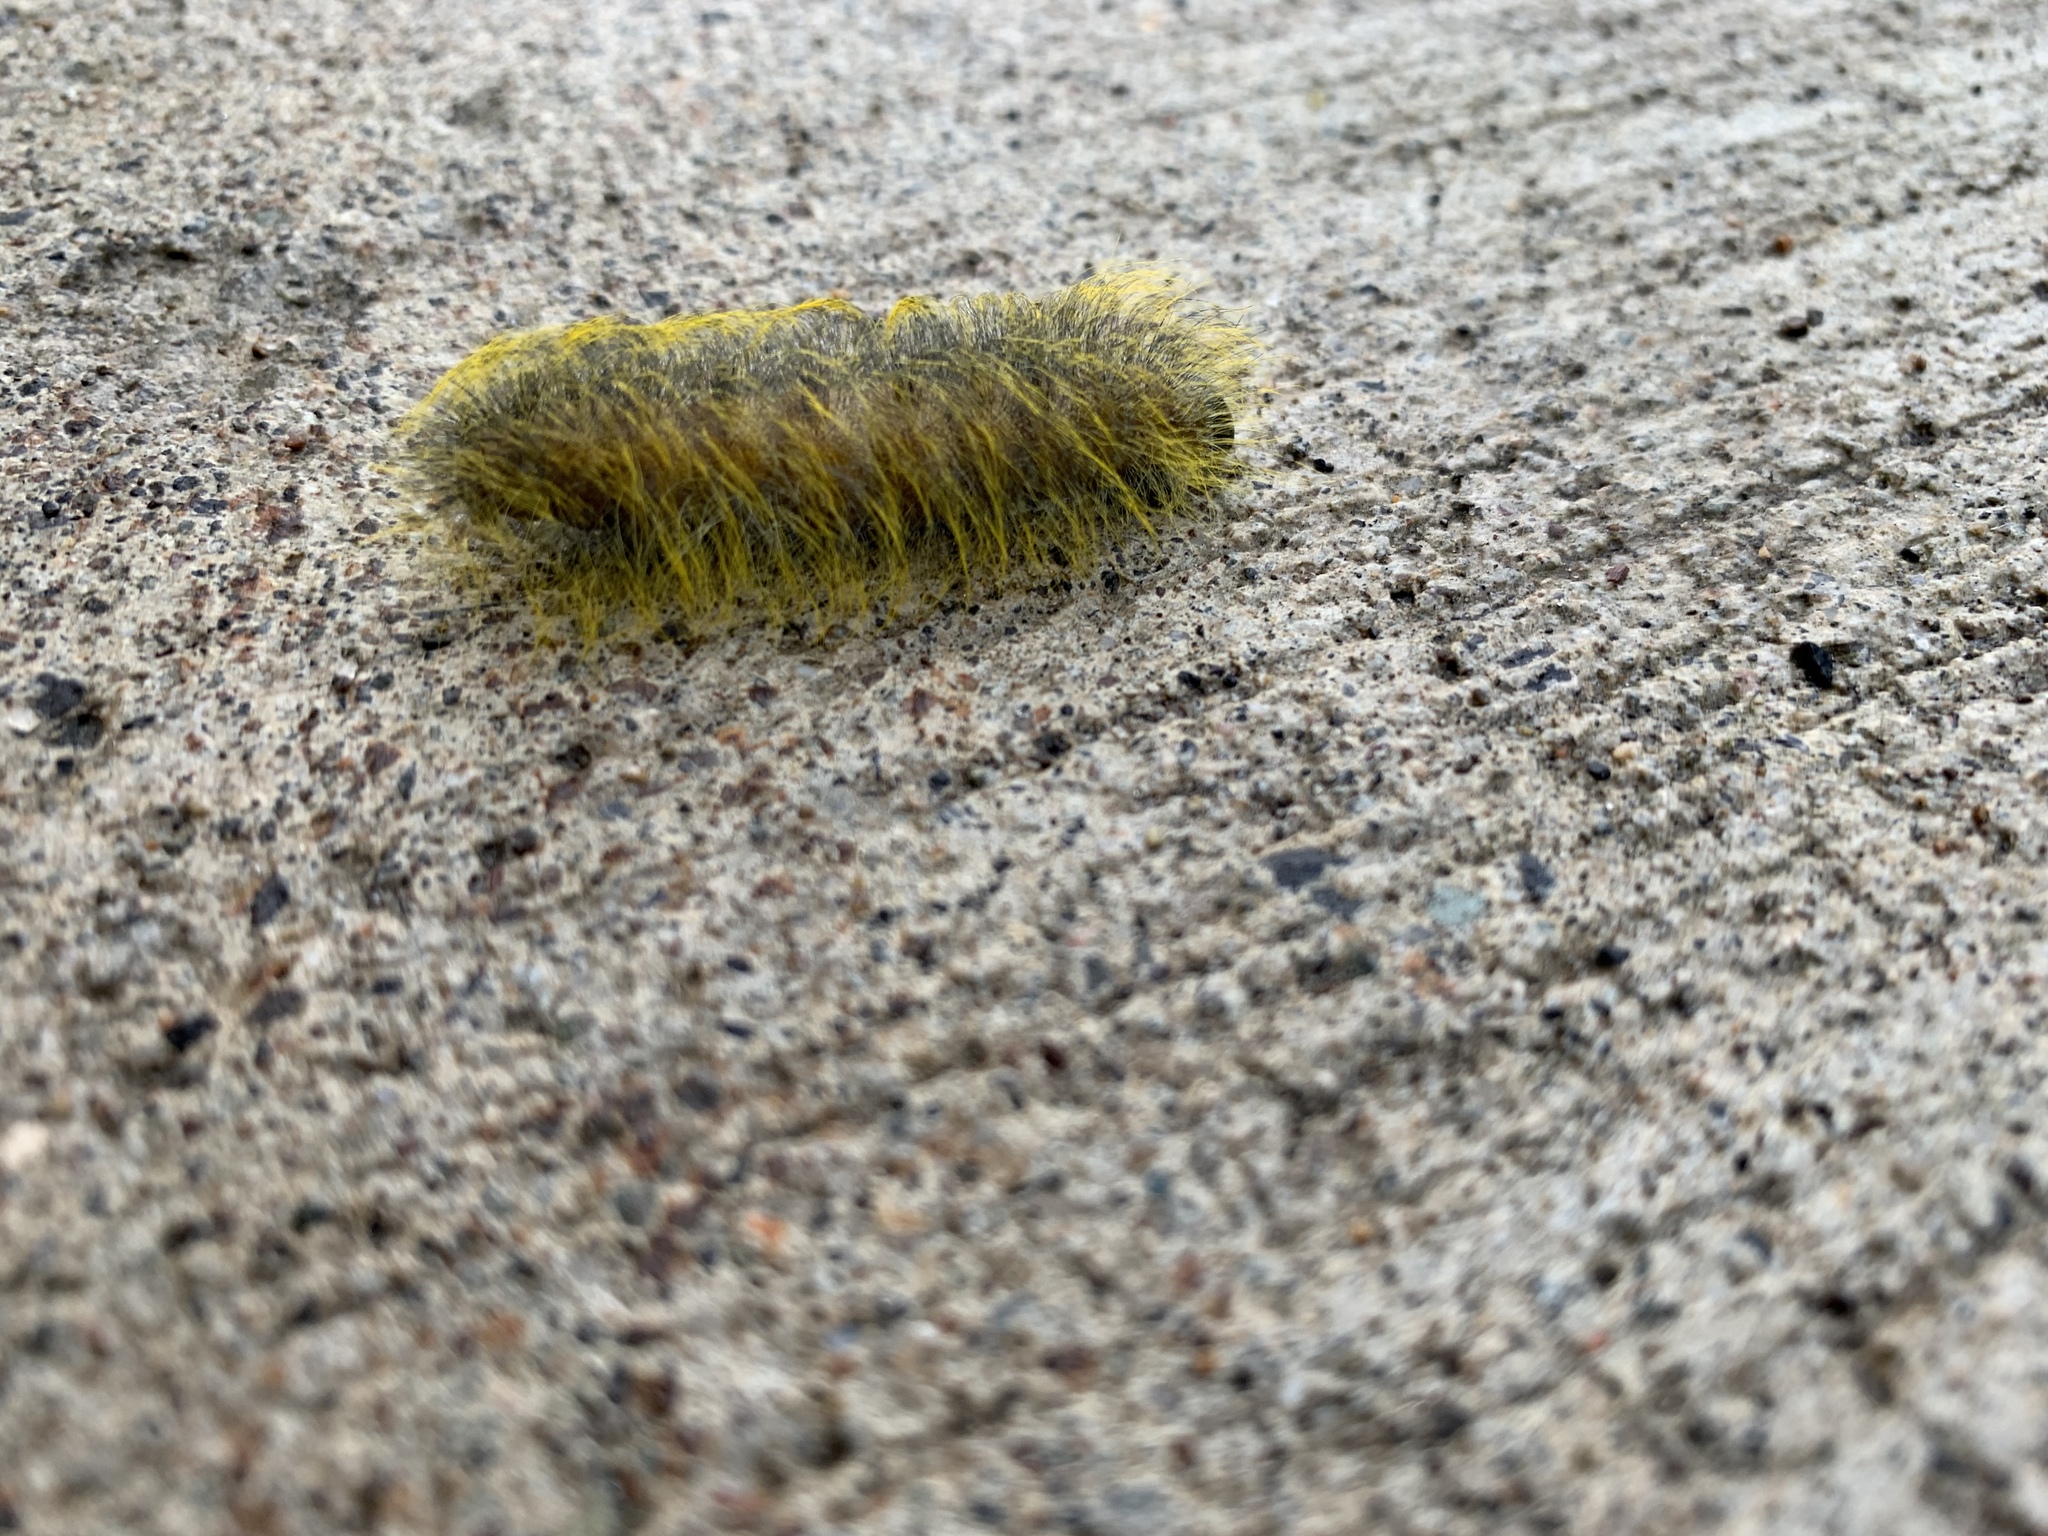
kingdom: Animalia
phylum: Arthropoda
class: Insecta
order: Lepidoptera
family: Noctuidae
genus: Acronicta
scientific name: Acronicta vulpina
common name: Miller dagger
